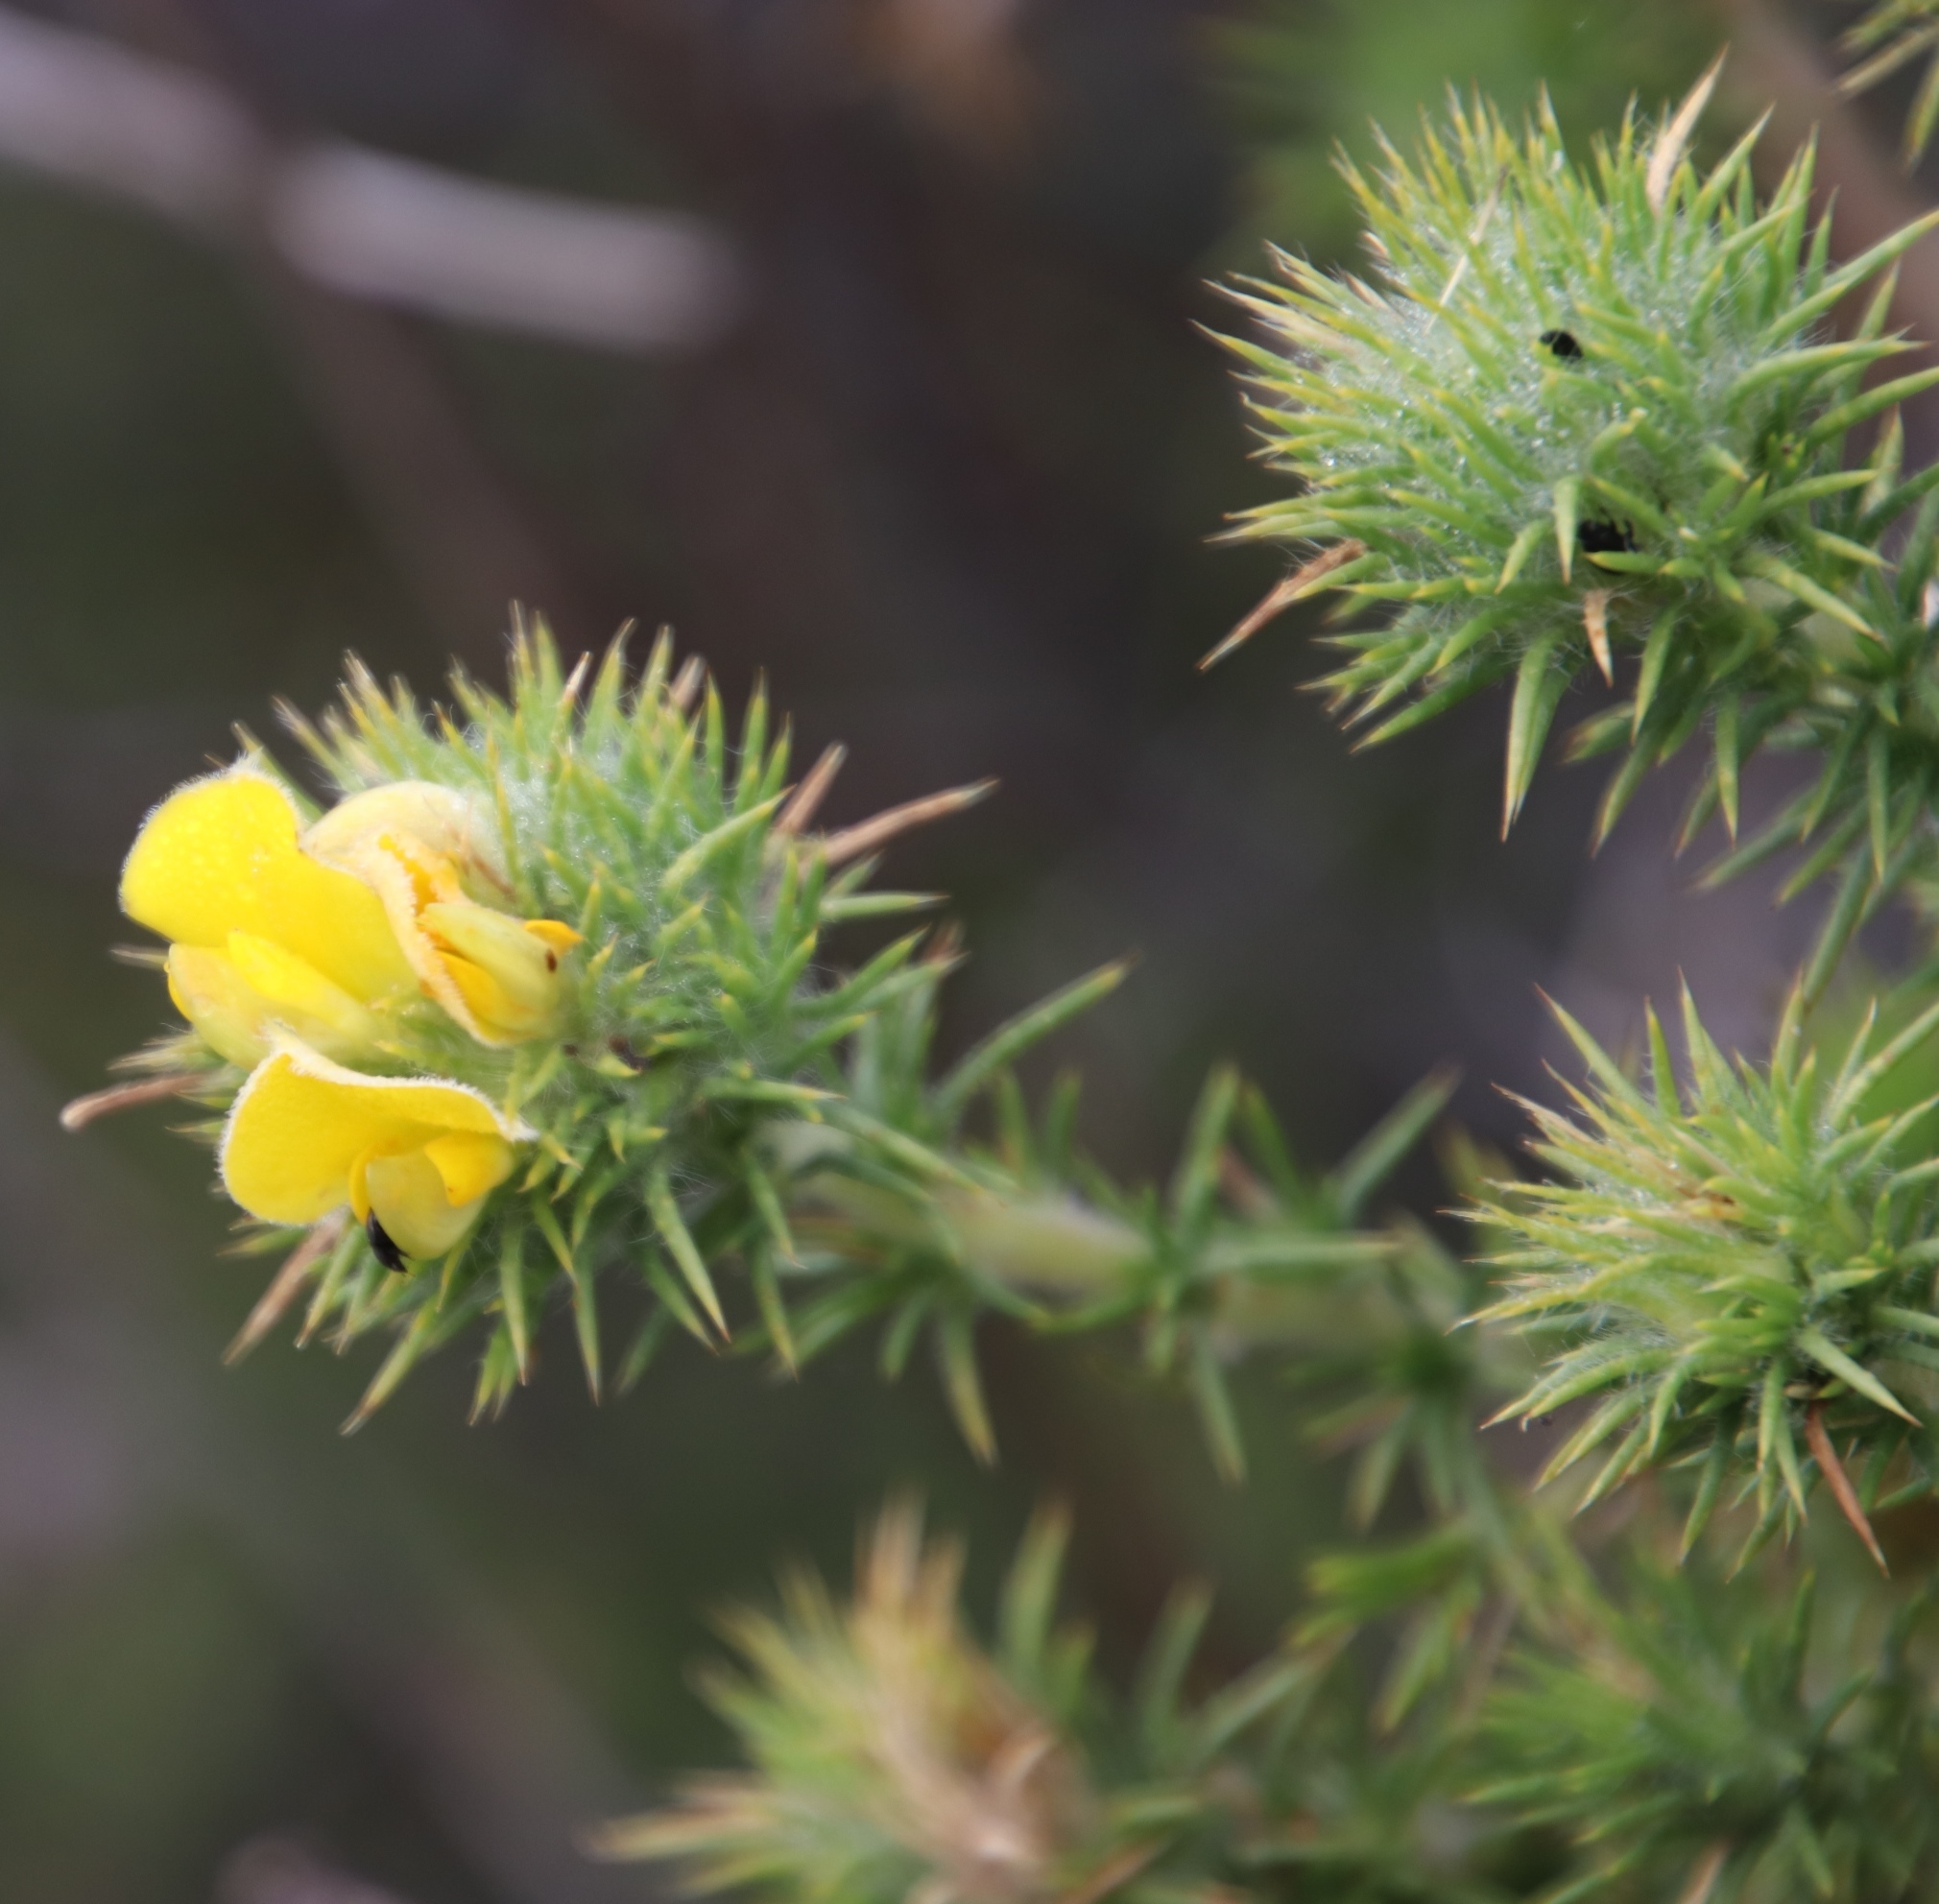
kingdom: Plantae
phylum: Tracheophyta
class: Magnoliopsida
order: Fabales
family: Fabaceae
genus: Aspalathus
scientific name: Aspalathus chenopoda
